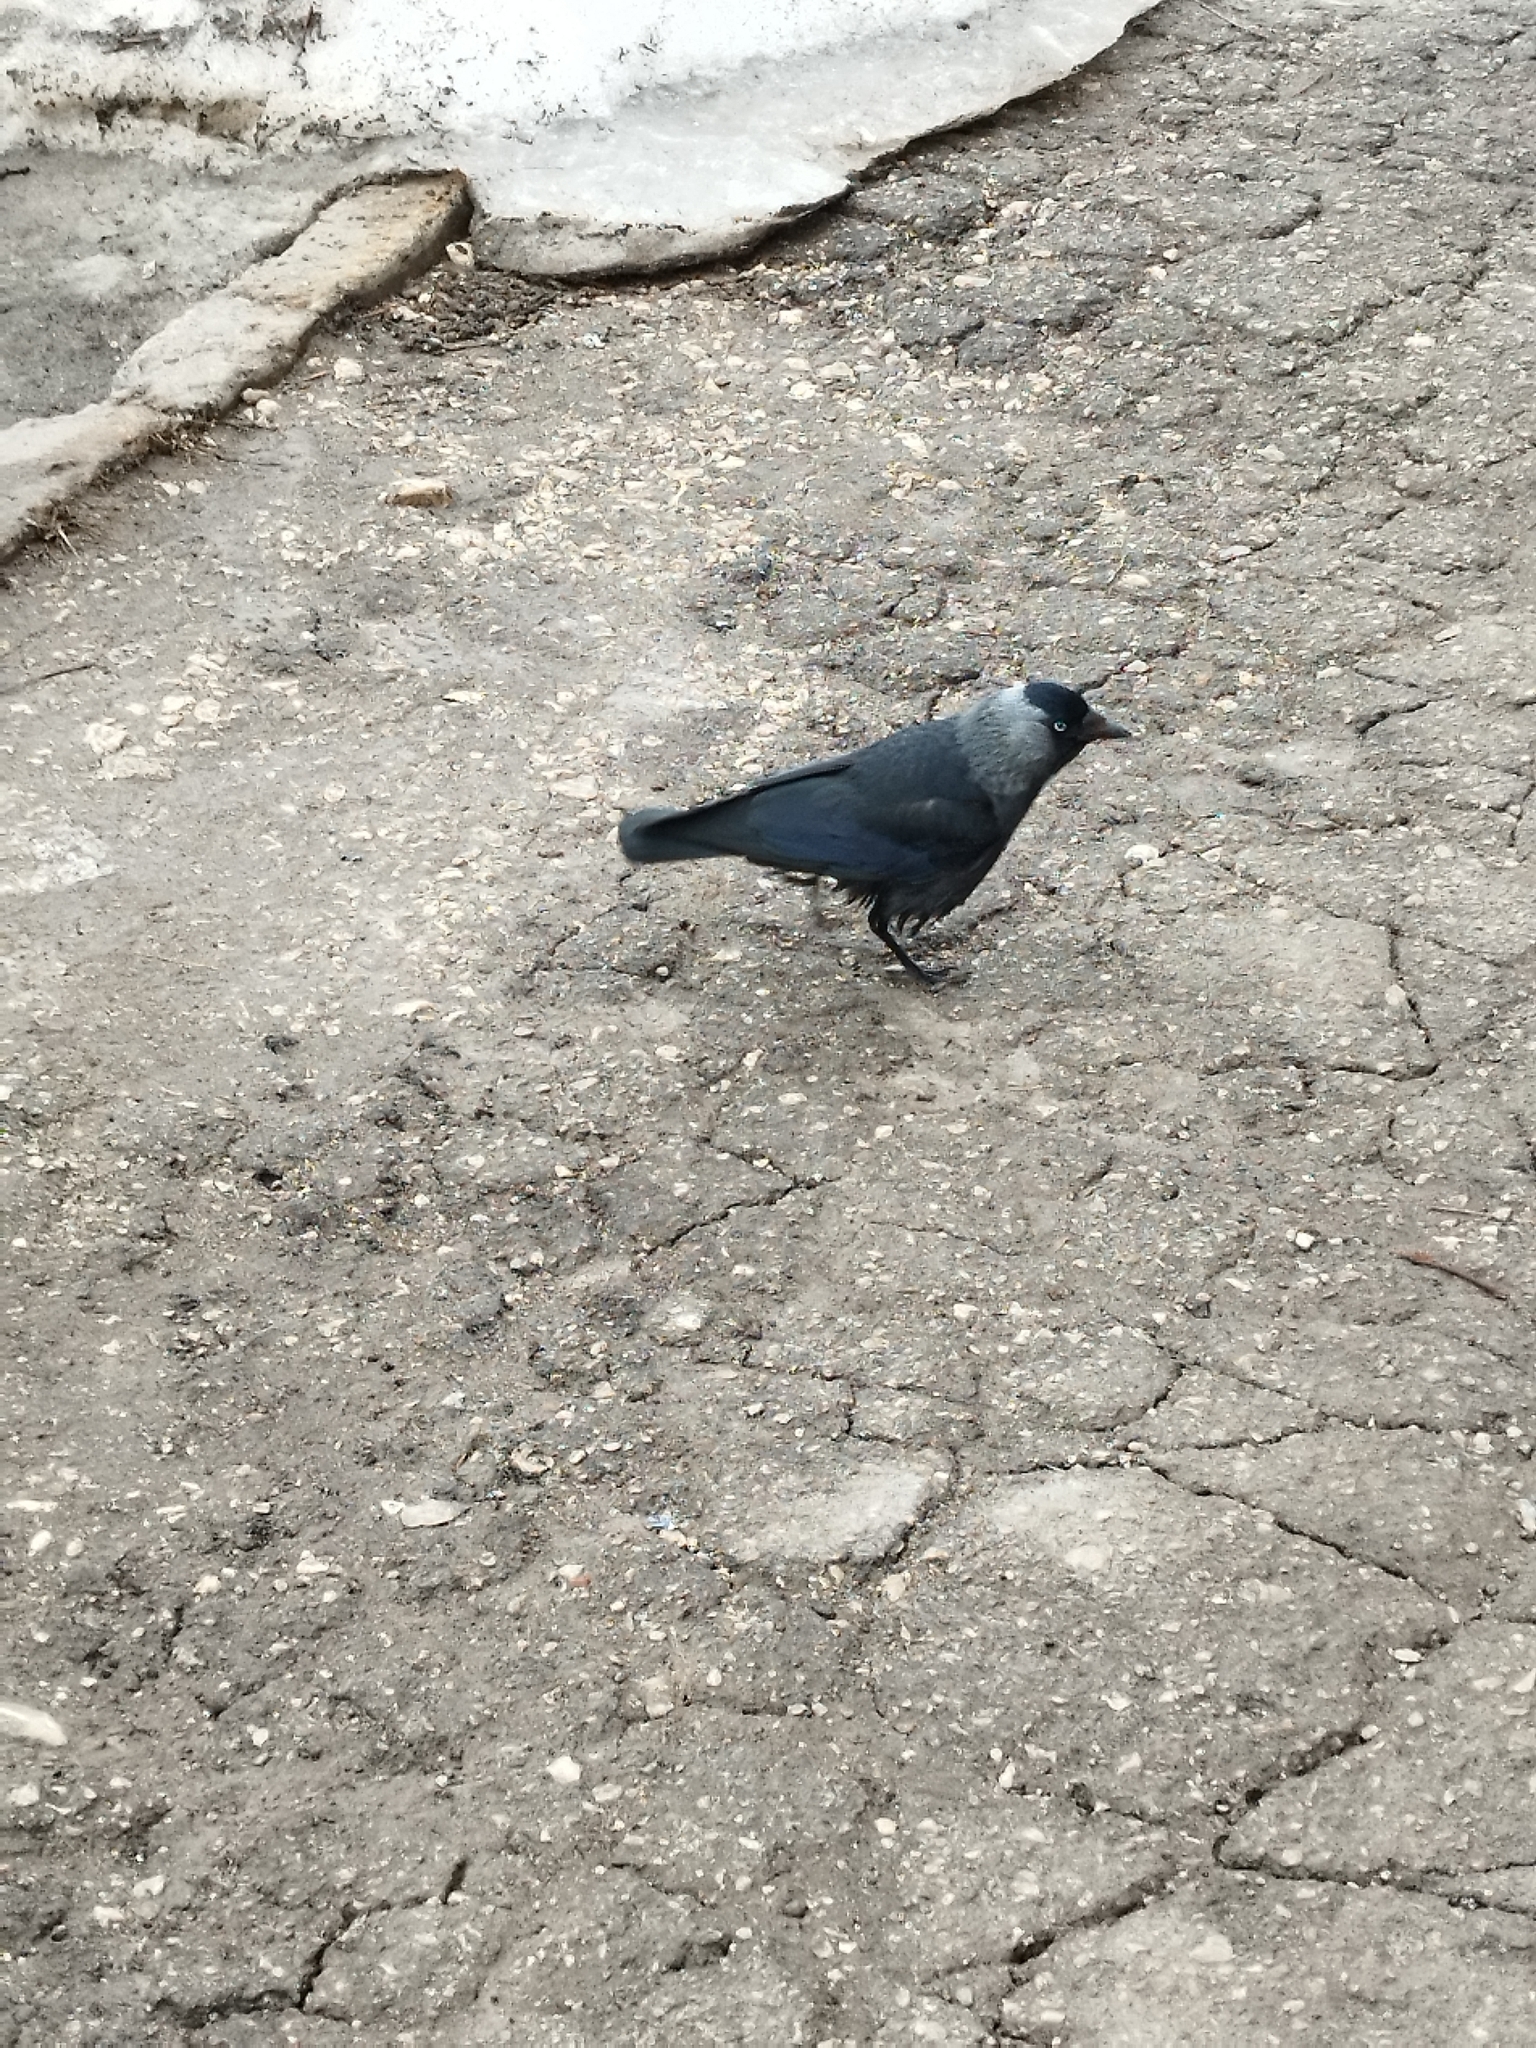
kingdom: Animalia
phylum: Chordata
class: Aves
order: Passeriformes
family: Corvidae
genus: Coloeus
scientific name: Coloeus monedula
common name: Western jackdaw
